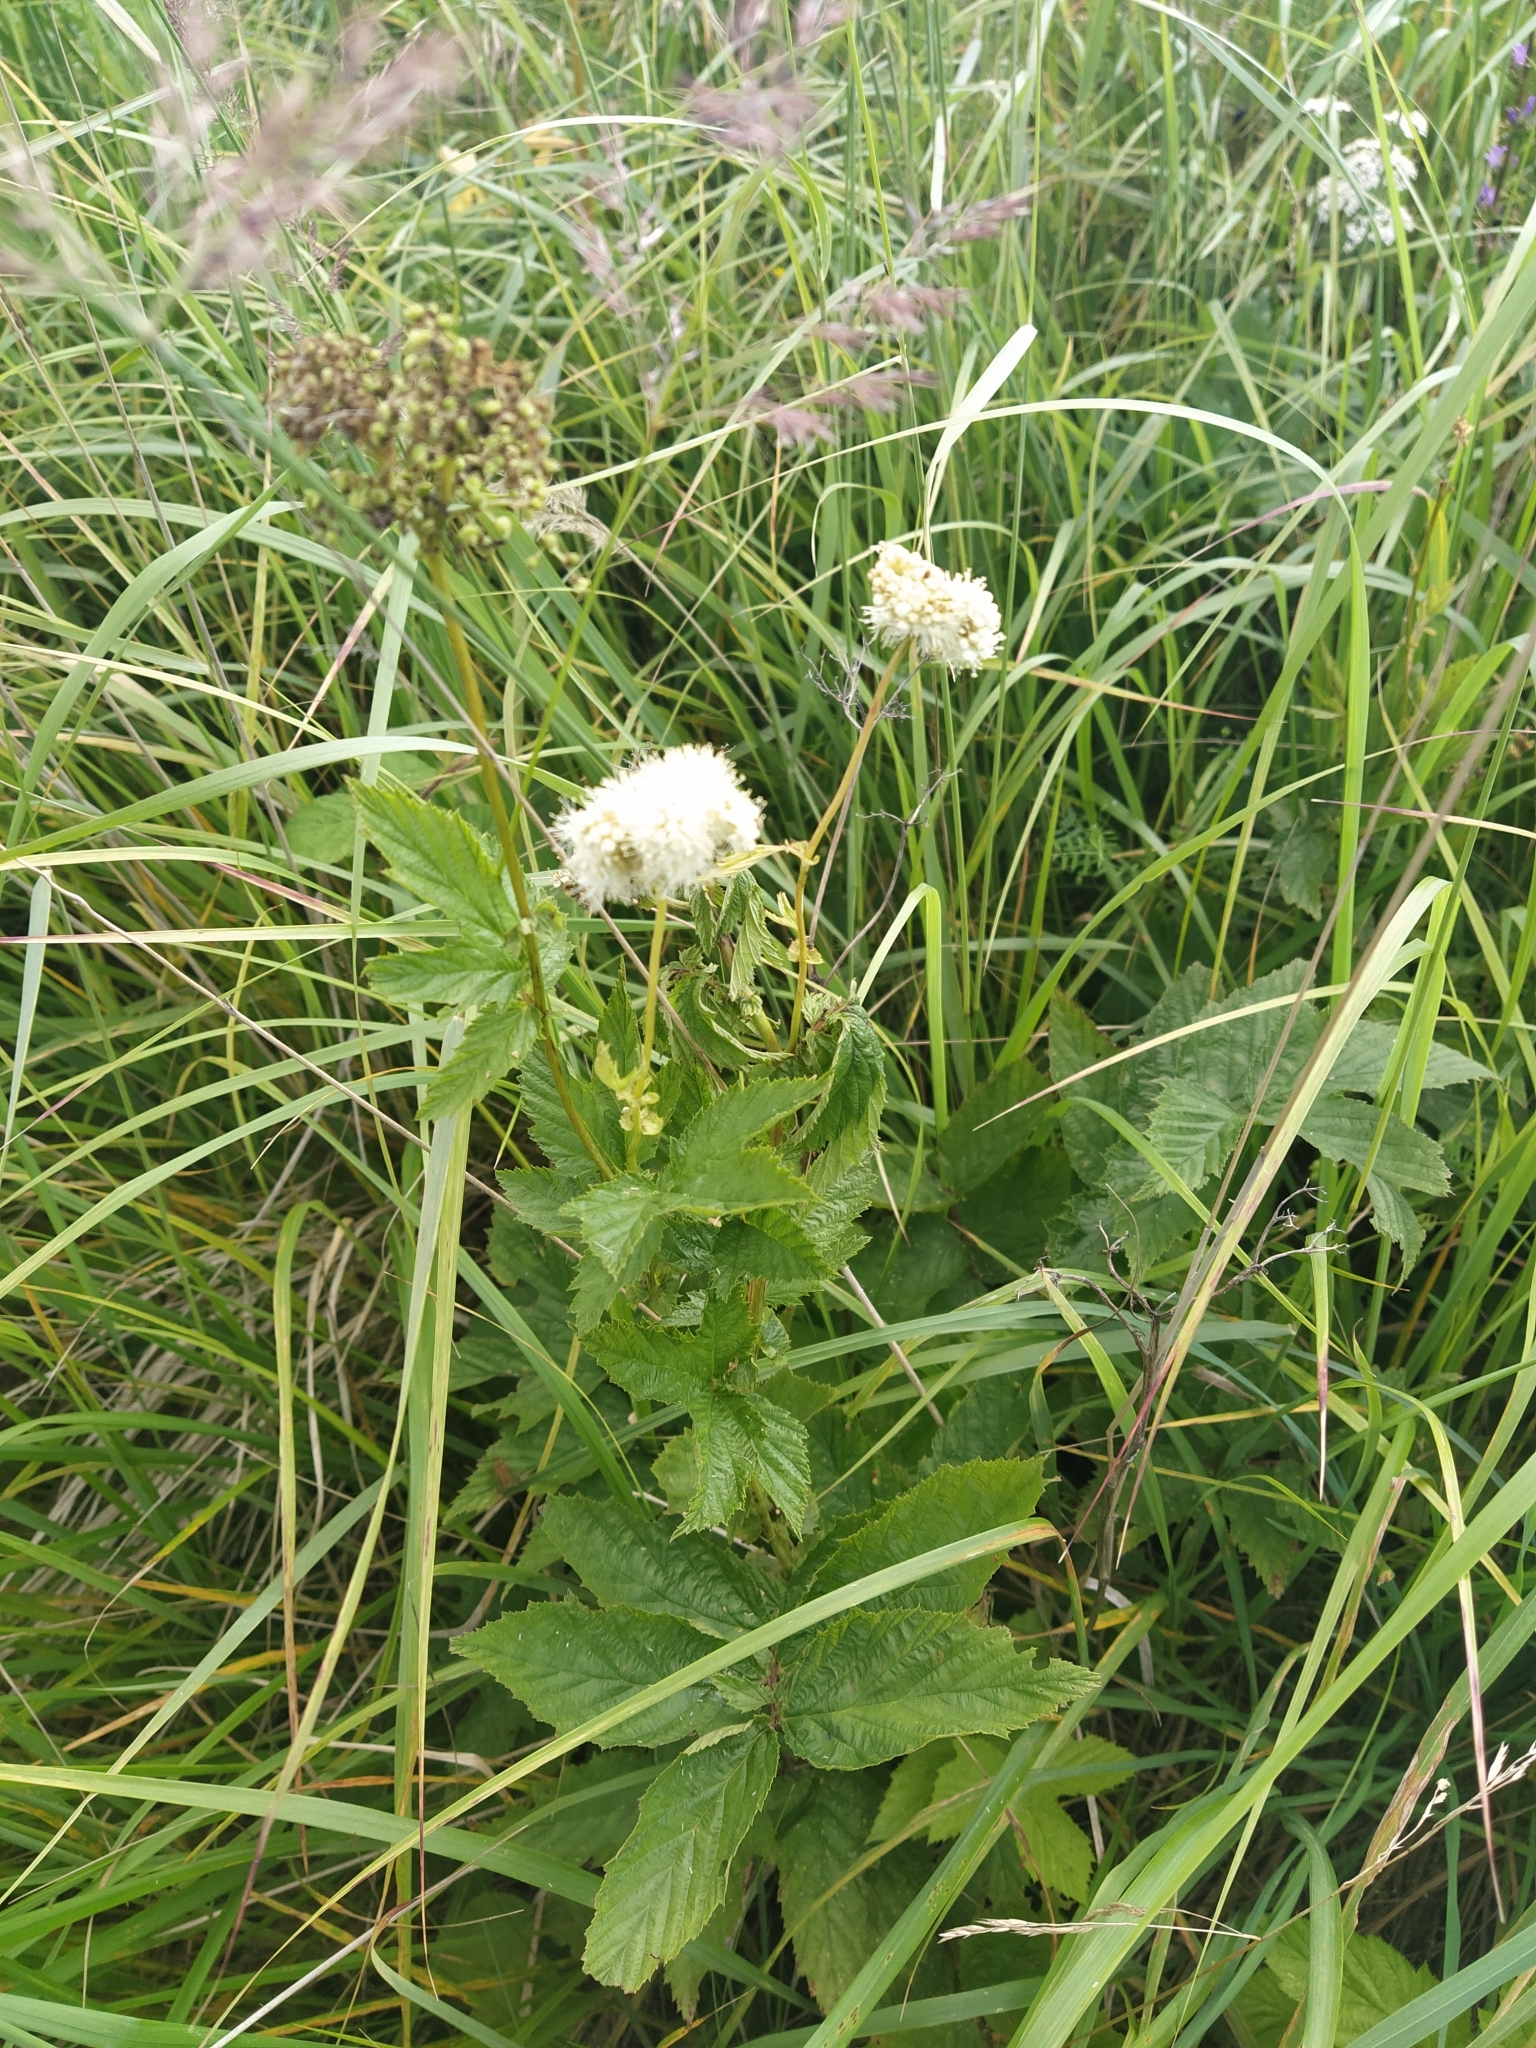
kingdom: Plantae
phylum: Tracheophyta
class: Magnoliopsida
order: Rosales
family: Rosaceae
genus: Filipendula
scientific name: Filipendula ulmaria
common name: Meadowsweet
